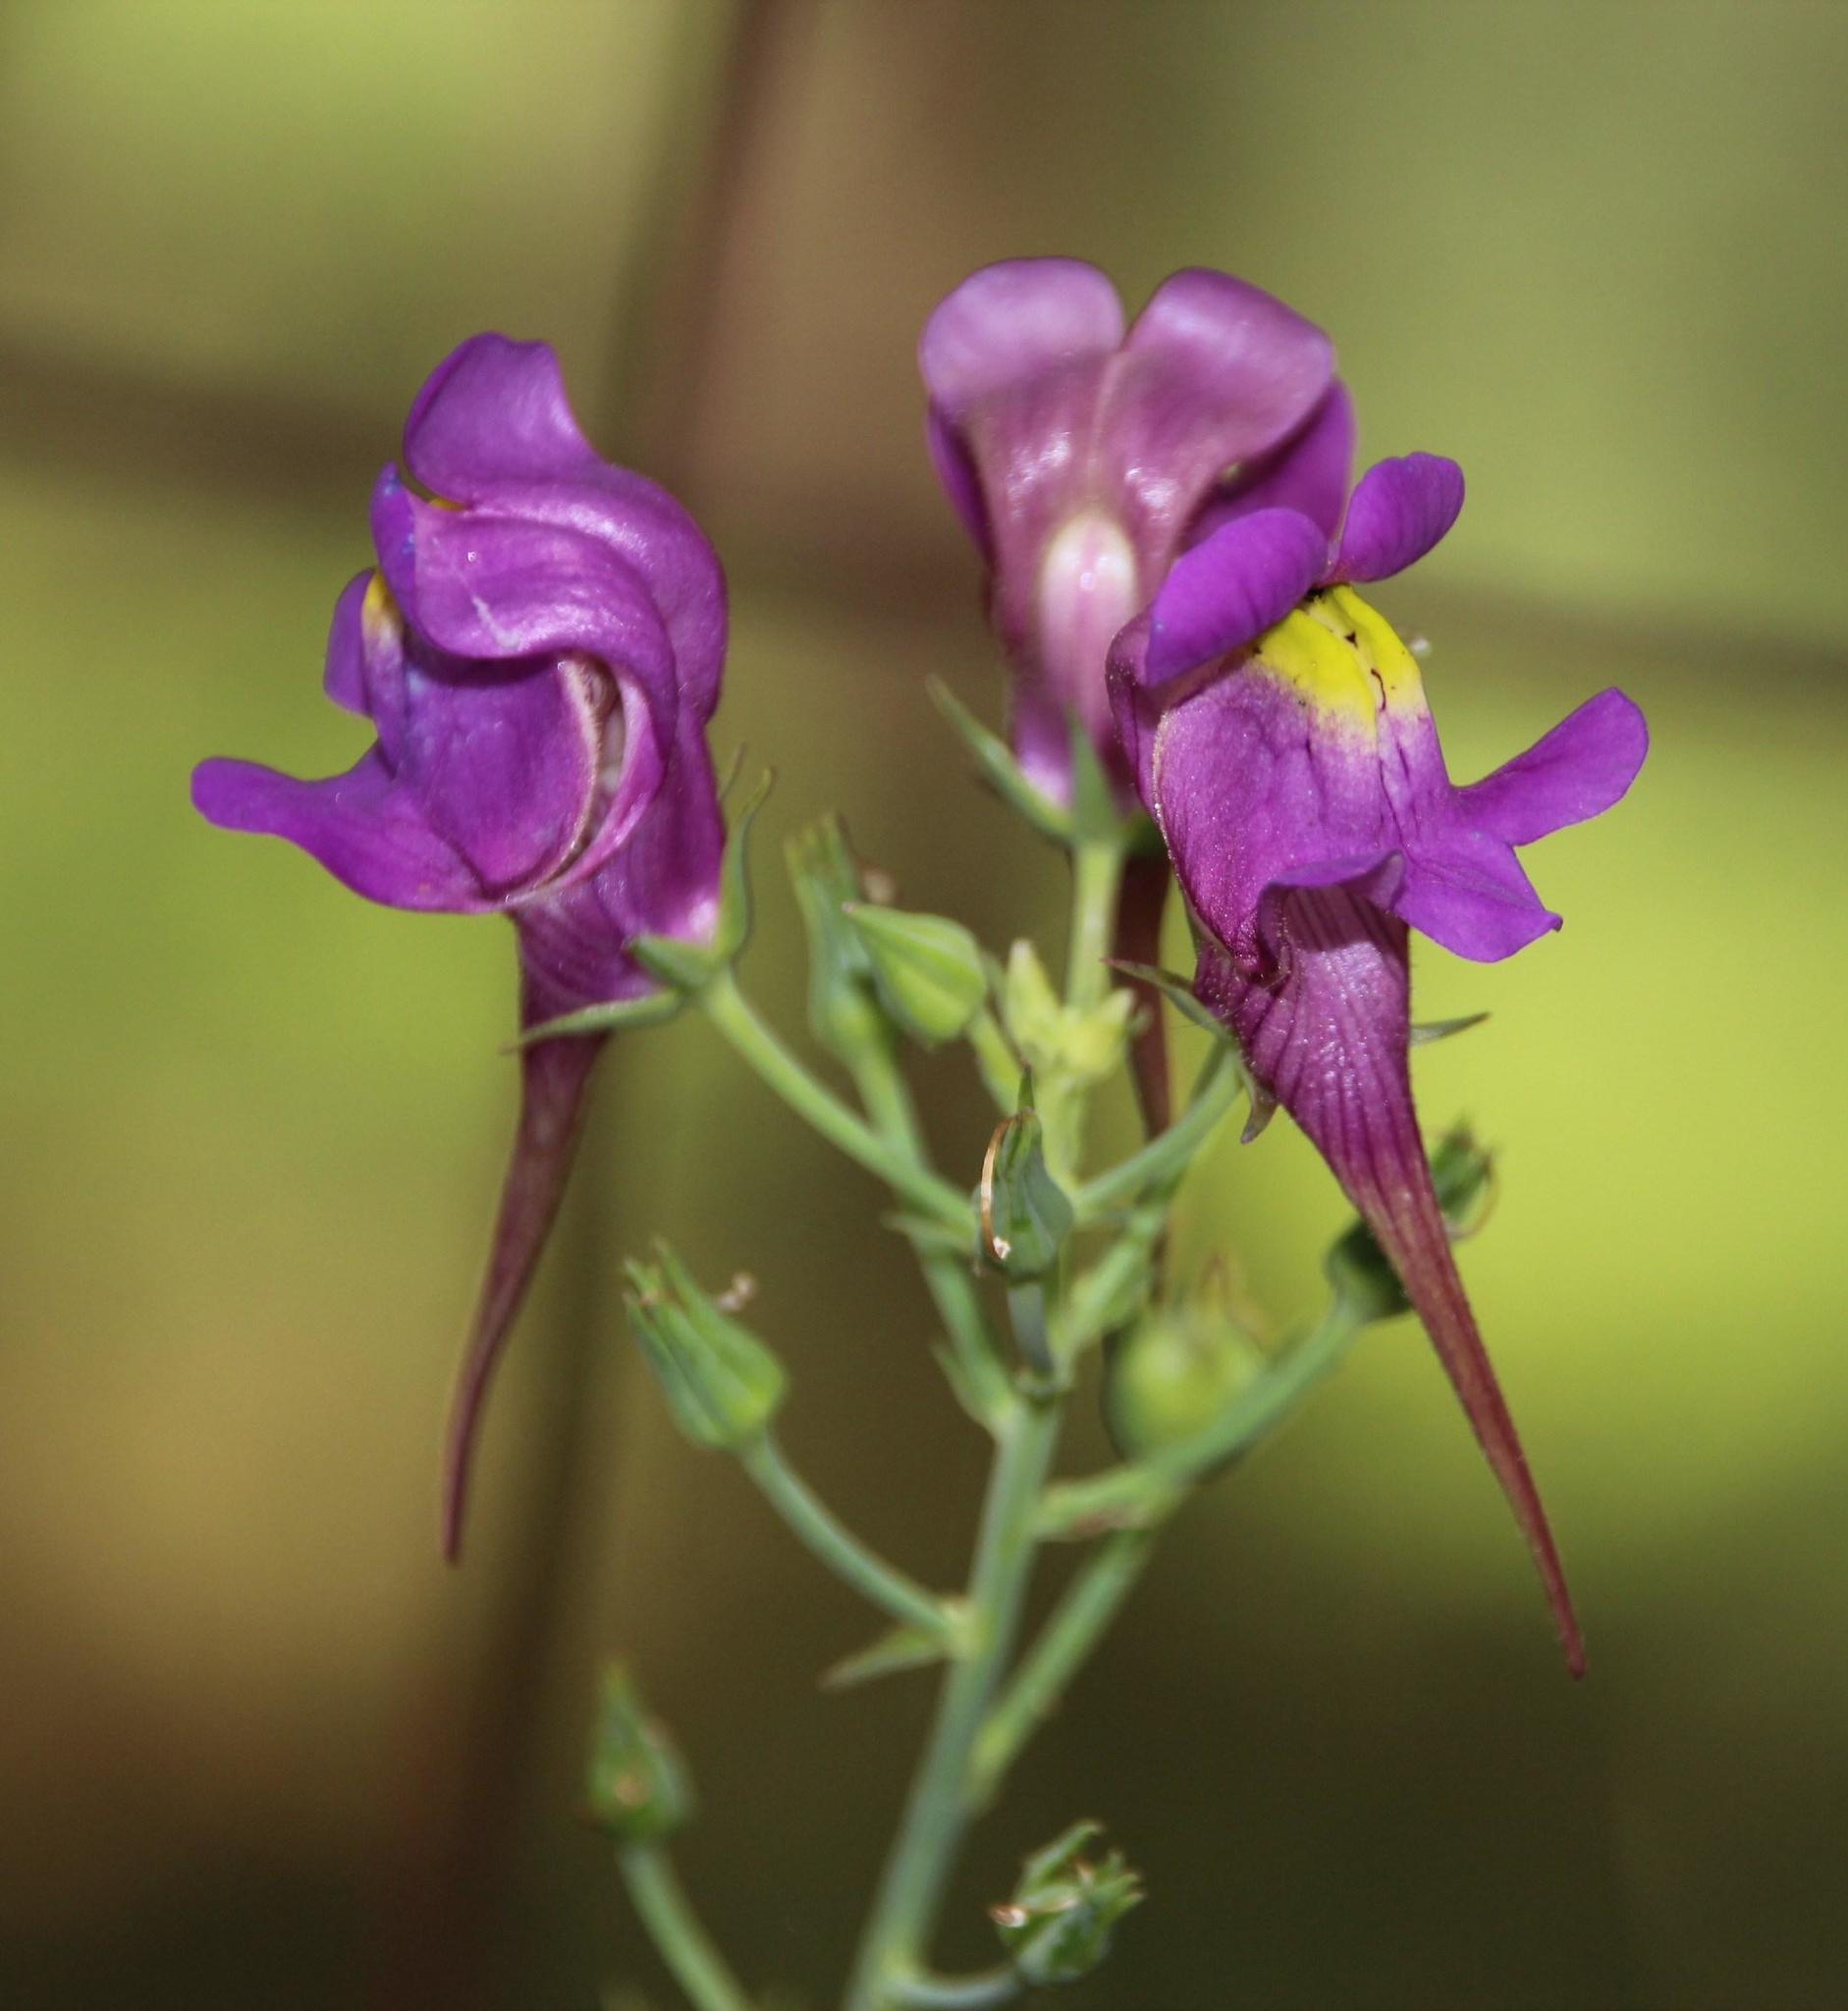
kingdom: Plantae
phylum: Tracheophyta
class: Magnoliopsida
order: Lamiales
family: Plantaginaceae
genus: Linaria
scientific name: Linaria triornithophora
